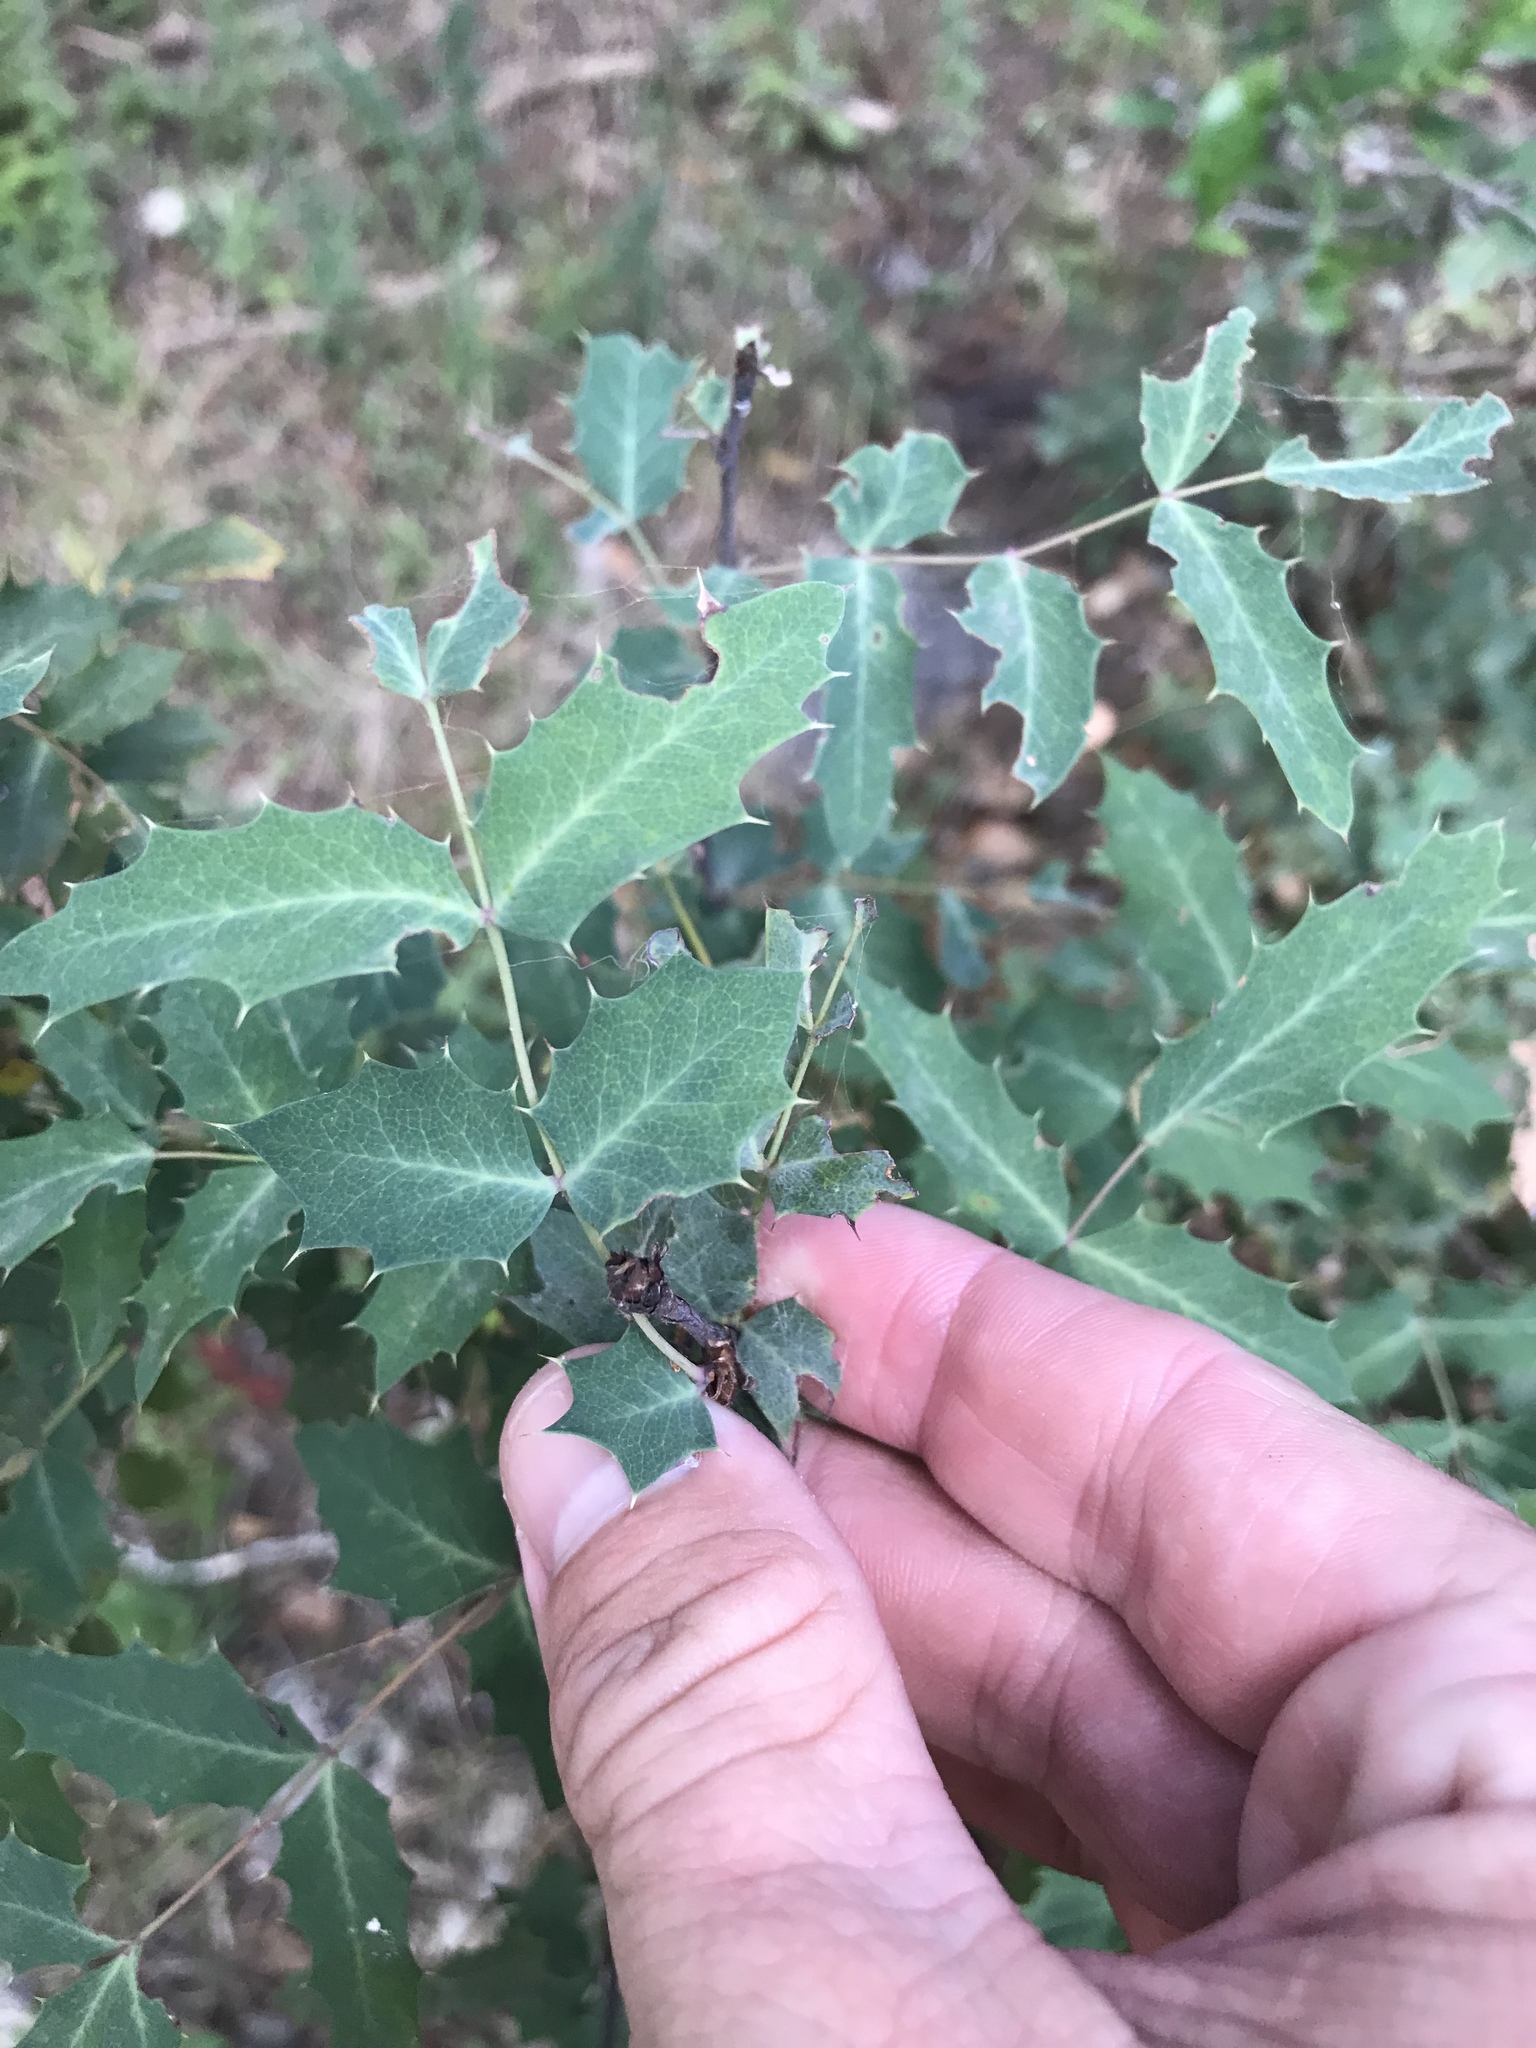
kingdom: Plantae
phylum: Tracheophyta
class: Magnoliopsida
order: Ranunculales
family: Berberidaceae
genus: Berberis
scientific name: Berberis swaseyi
